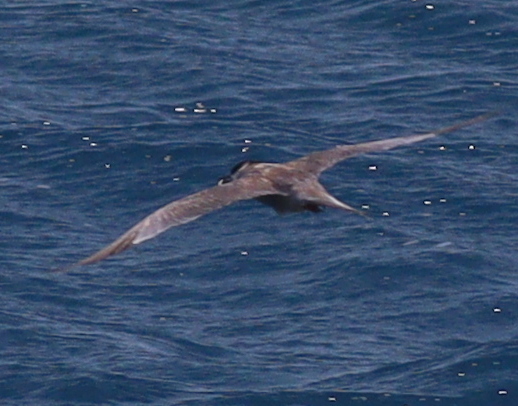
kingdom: Animalia
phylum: Chordata
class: Aves
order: Charadriiformes
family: Laridae
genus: Sterna
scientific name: Sterna repressa
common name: White-cheeked tern
